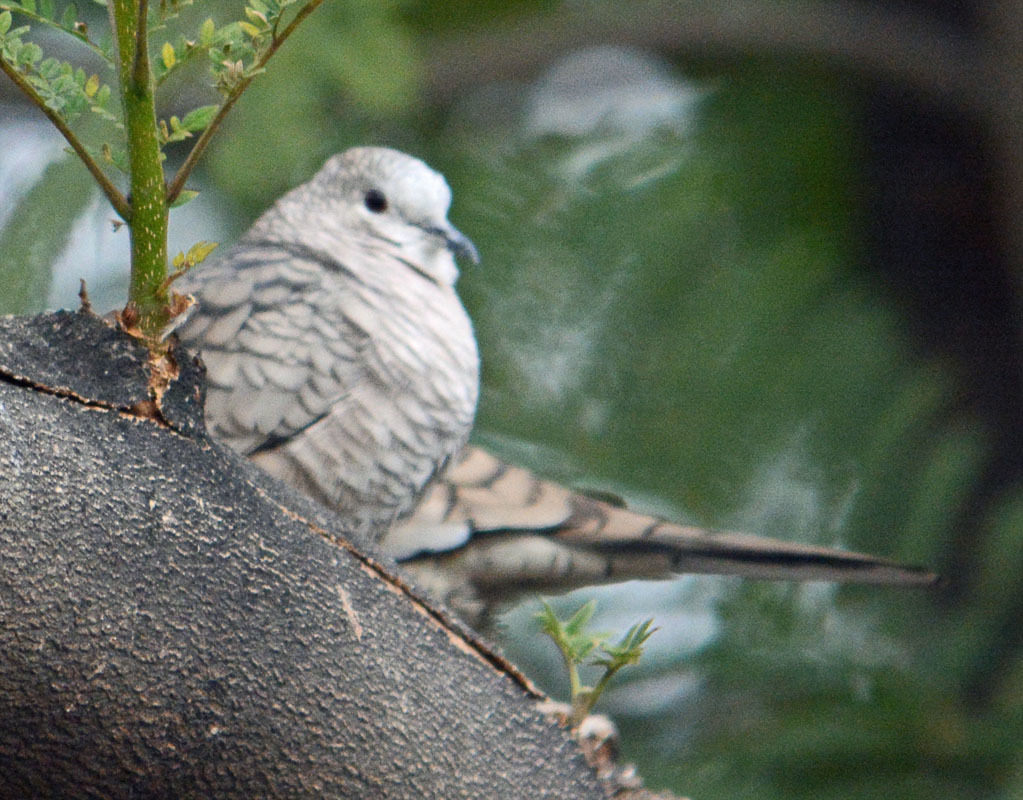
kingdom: Animalia
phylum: Chordata
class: Aves
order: Columbiformes
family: Columbidae
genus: Columbina
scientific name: Columbina inca
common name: Inca dove
